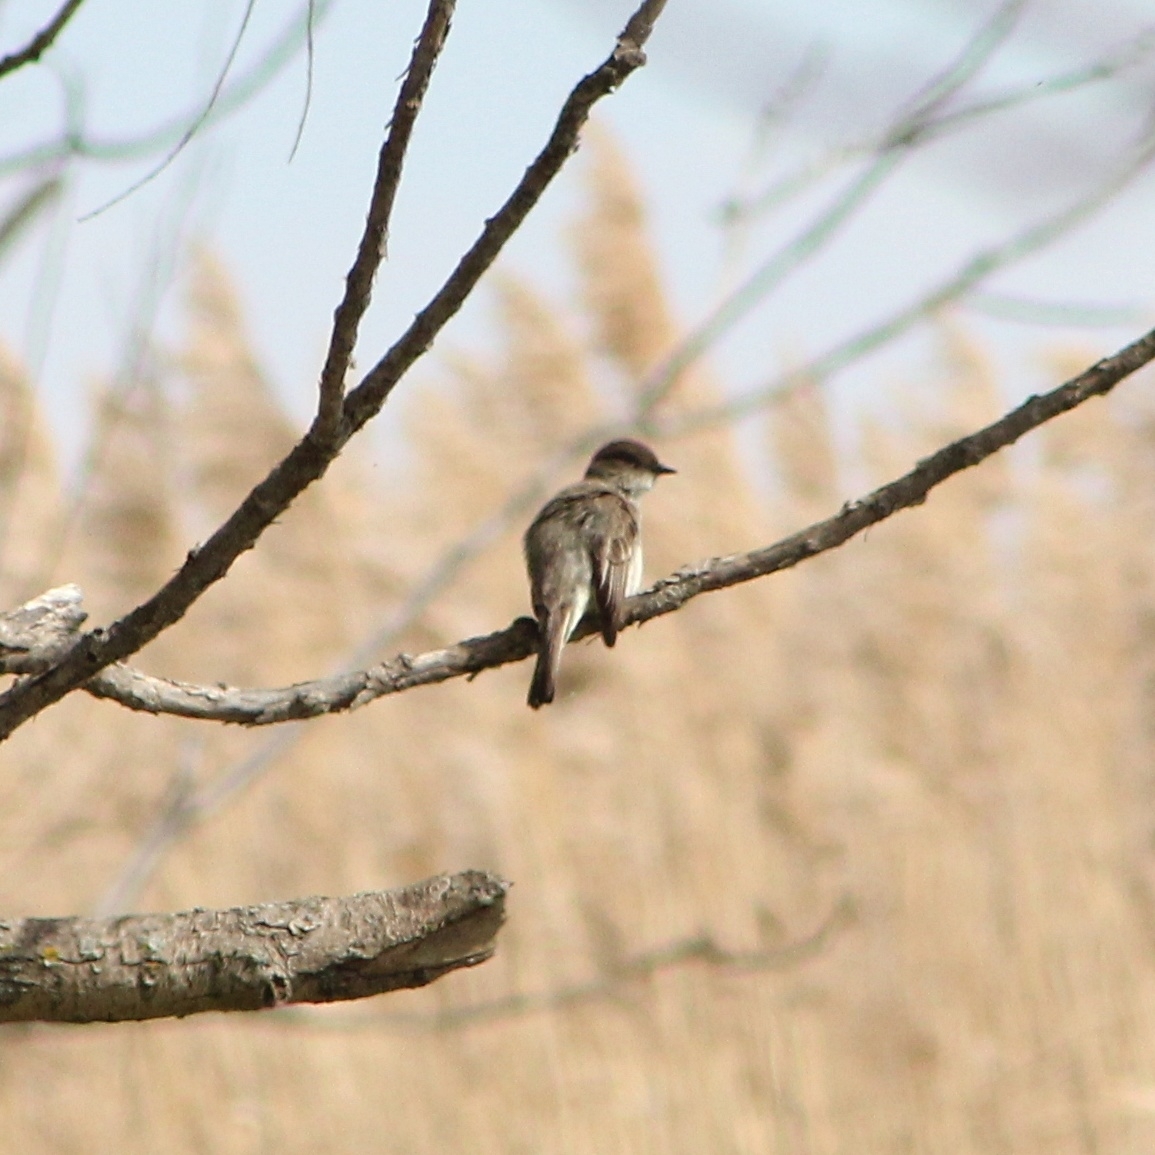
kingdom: Animalia
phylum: Chordata
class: Aves
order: Passeriformes
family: Tyrannidae
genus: Sayornis
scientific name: Sayornis phoebe
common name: Eastern phoebe
